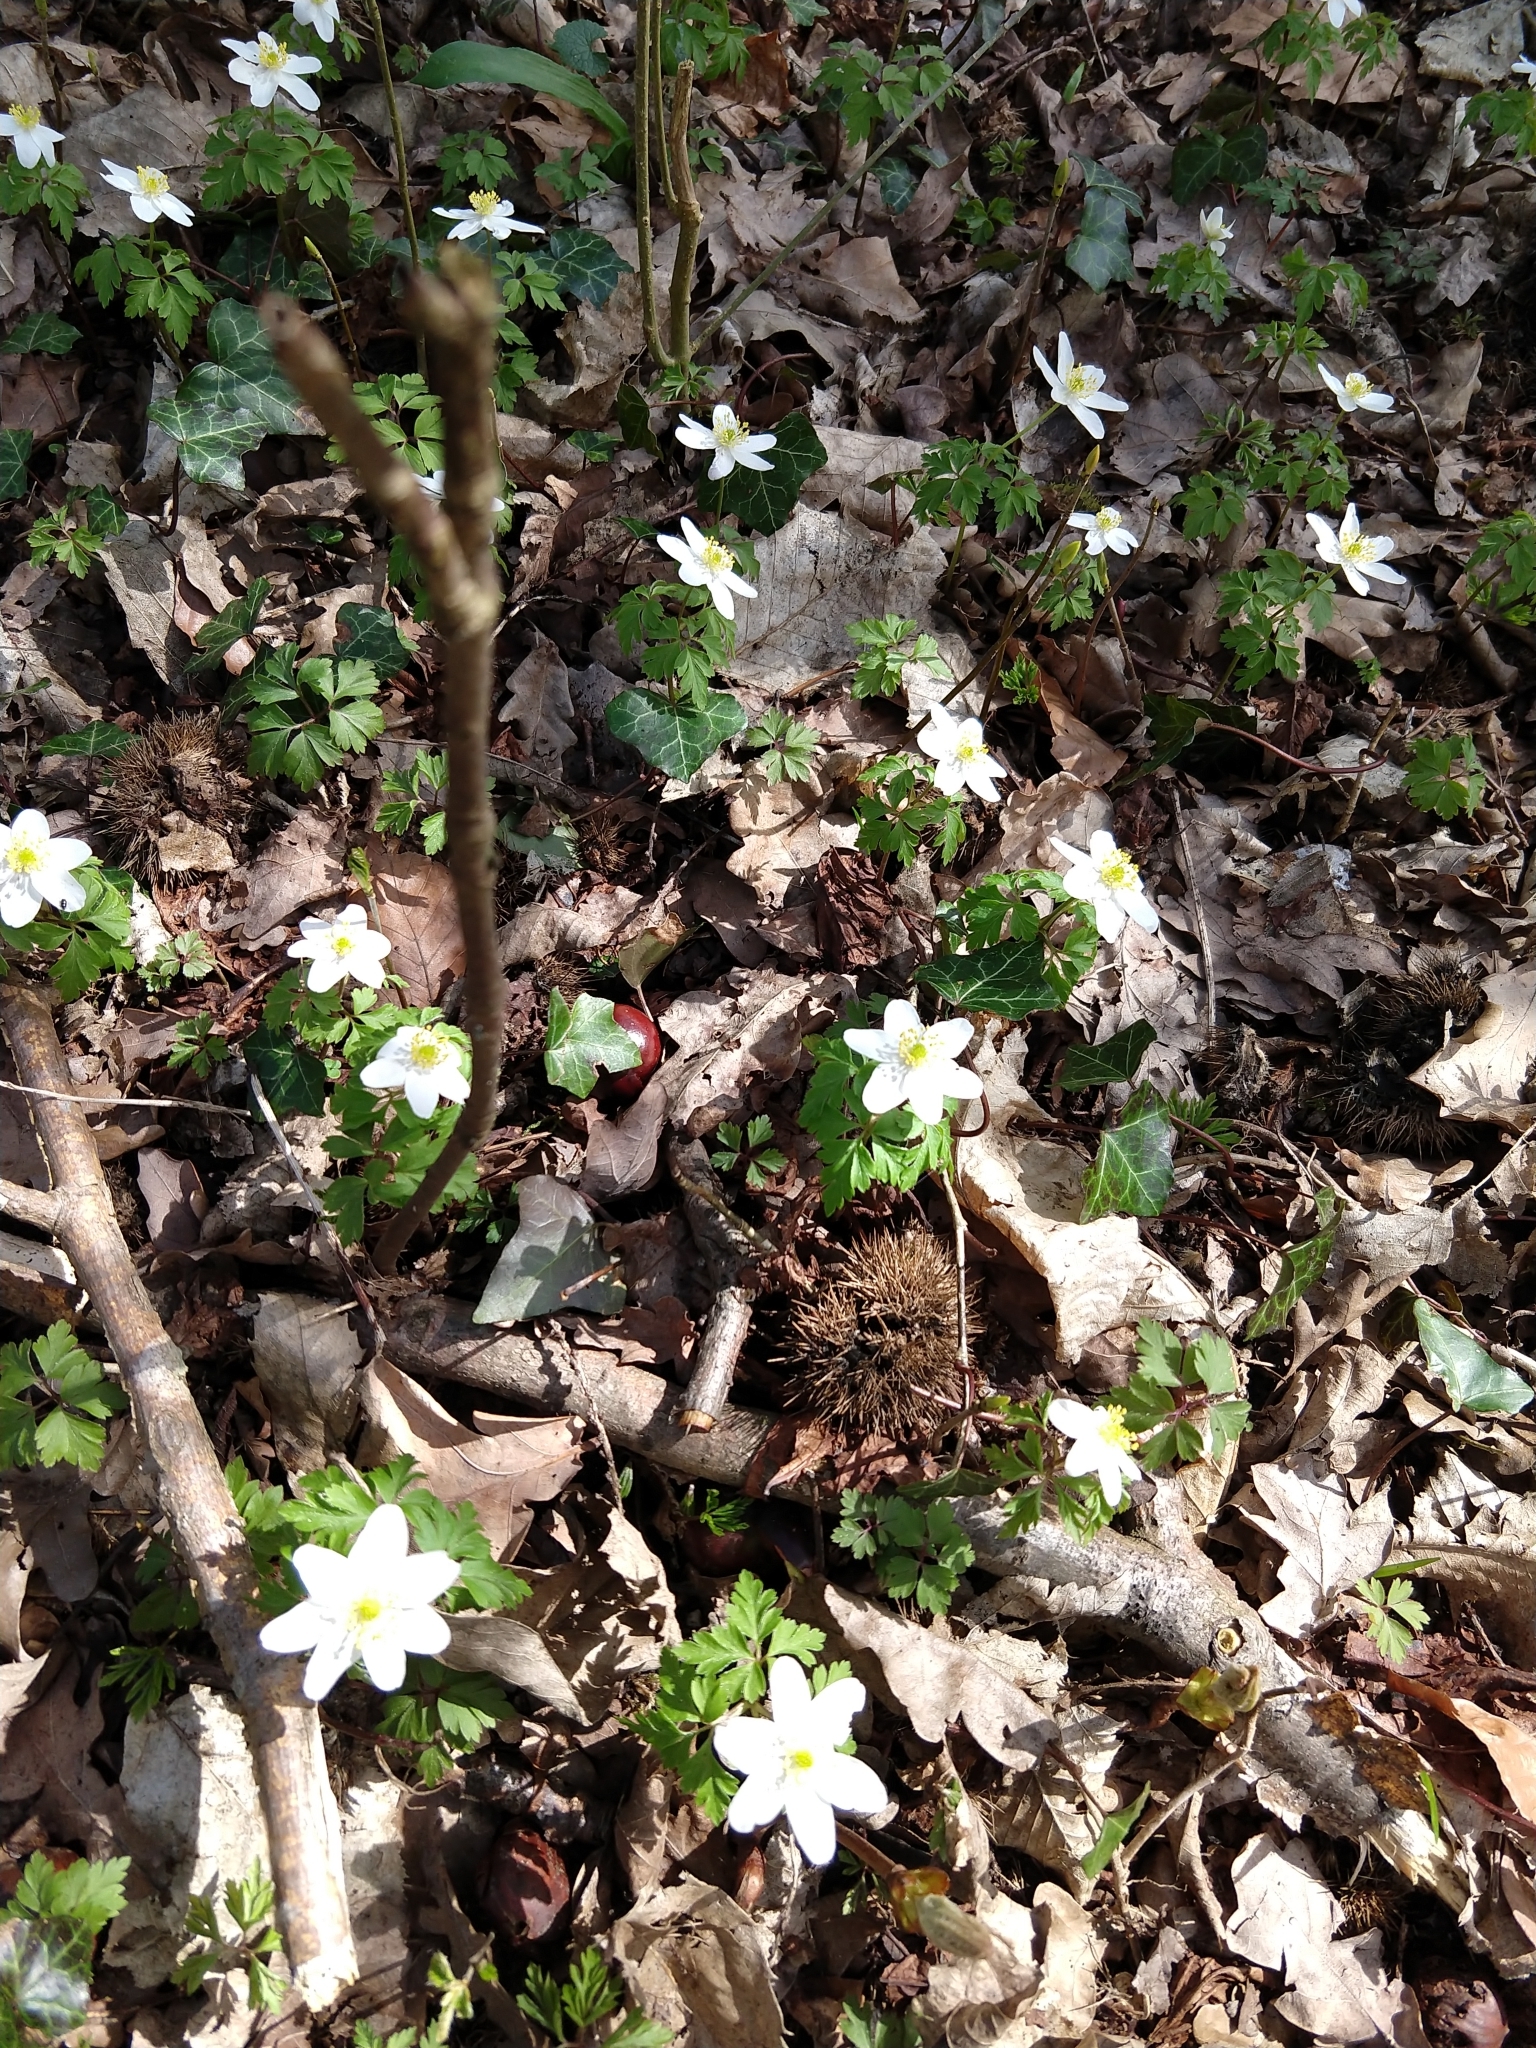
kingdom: Plantae
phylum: Tracheophyta
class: Magnoliopsida
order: Ranunculales
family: Ranunculaceae
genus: Anemone
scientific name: Anemone nemorosa
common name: Wood anemone
